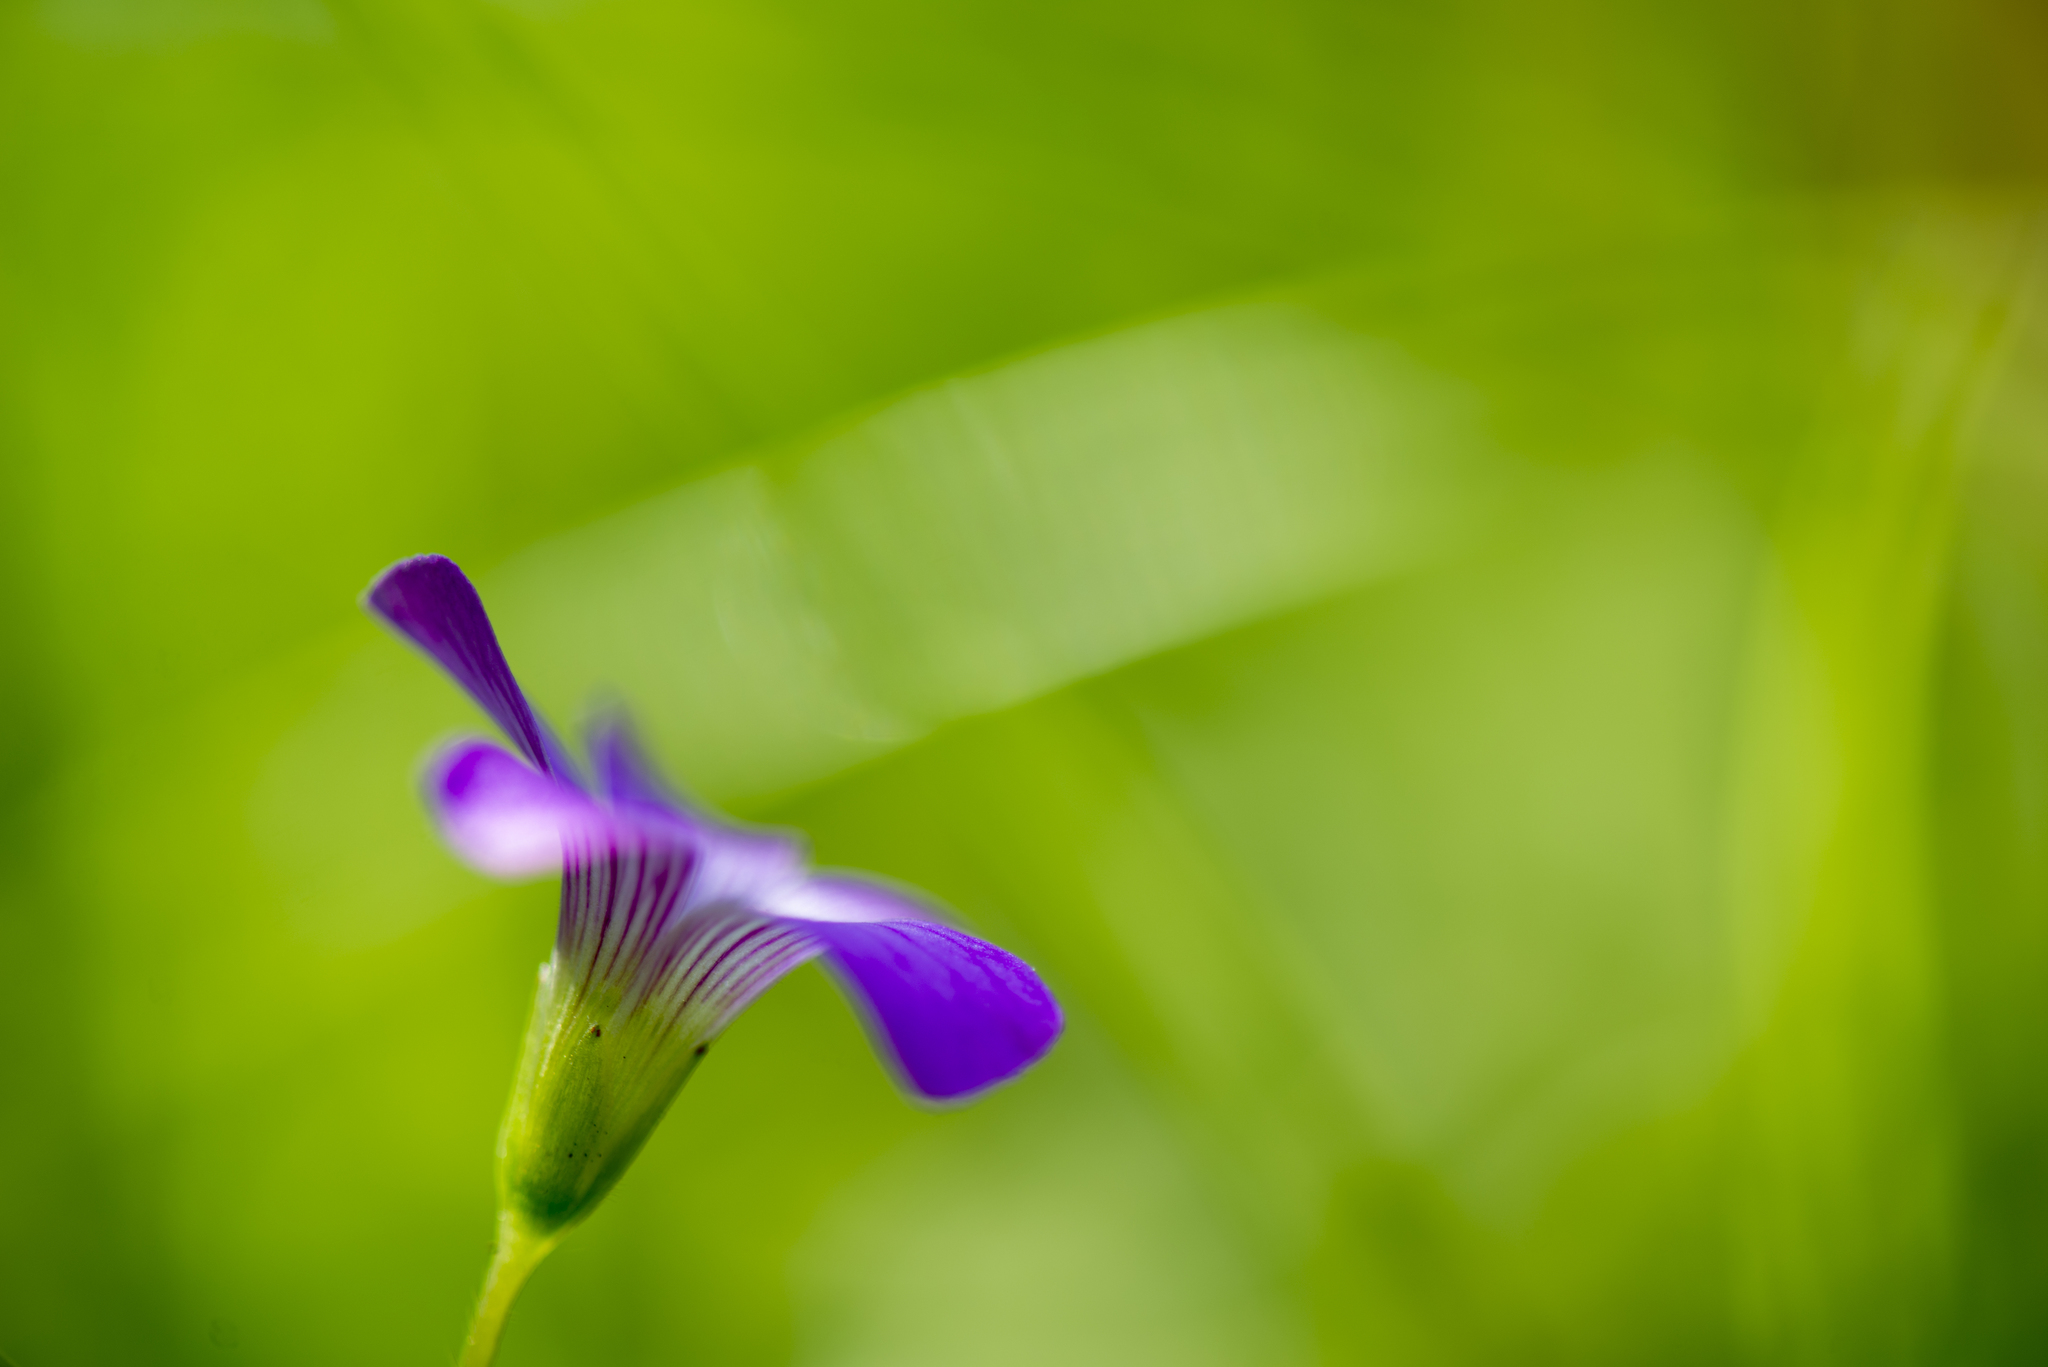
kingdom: Plantae
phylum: Tracheophyta
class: Magnoliopsida
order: Oxalidales
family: Oxalidaceae
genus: Oxalis
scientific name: Oxalis debilis
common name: Large-flowered pink-sorrel
